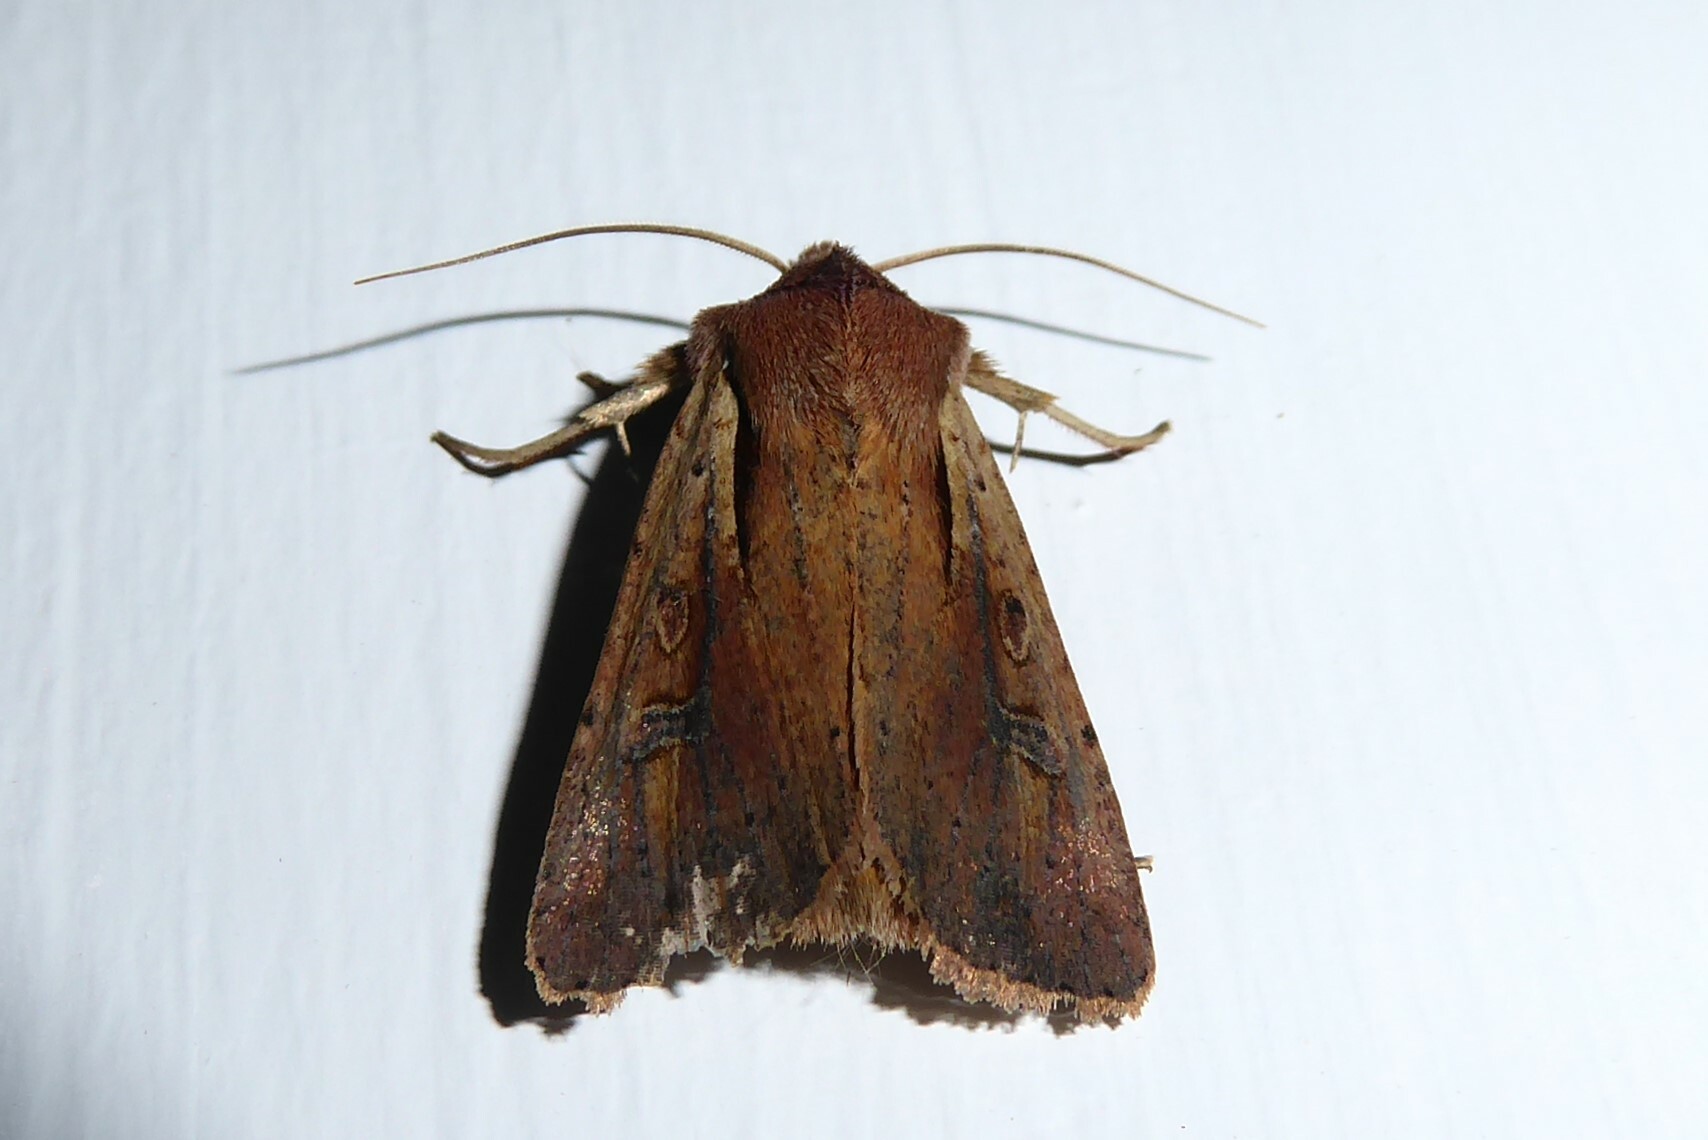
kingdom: Animalia
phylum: Arthropoda
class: Insecta
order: Lepidoptera
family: Noctuidae
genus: Ichneutica
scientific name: Ichneutica atristriga
